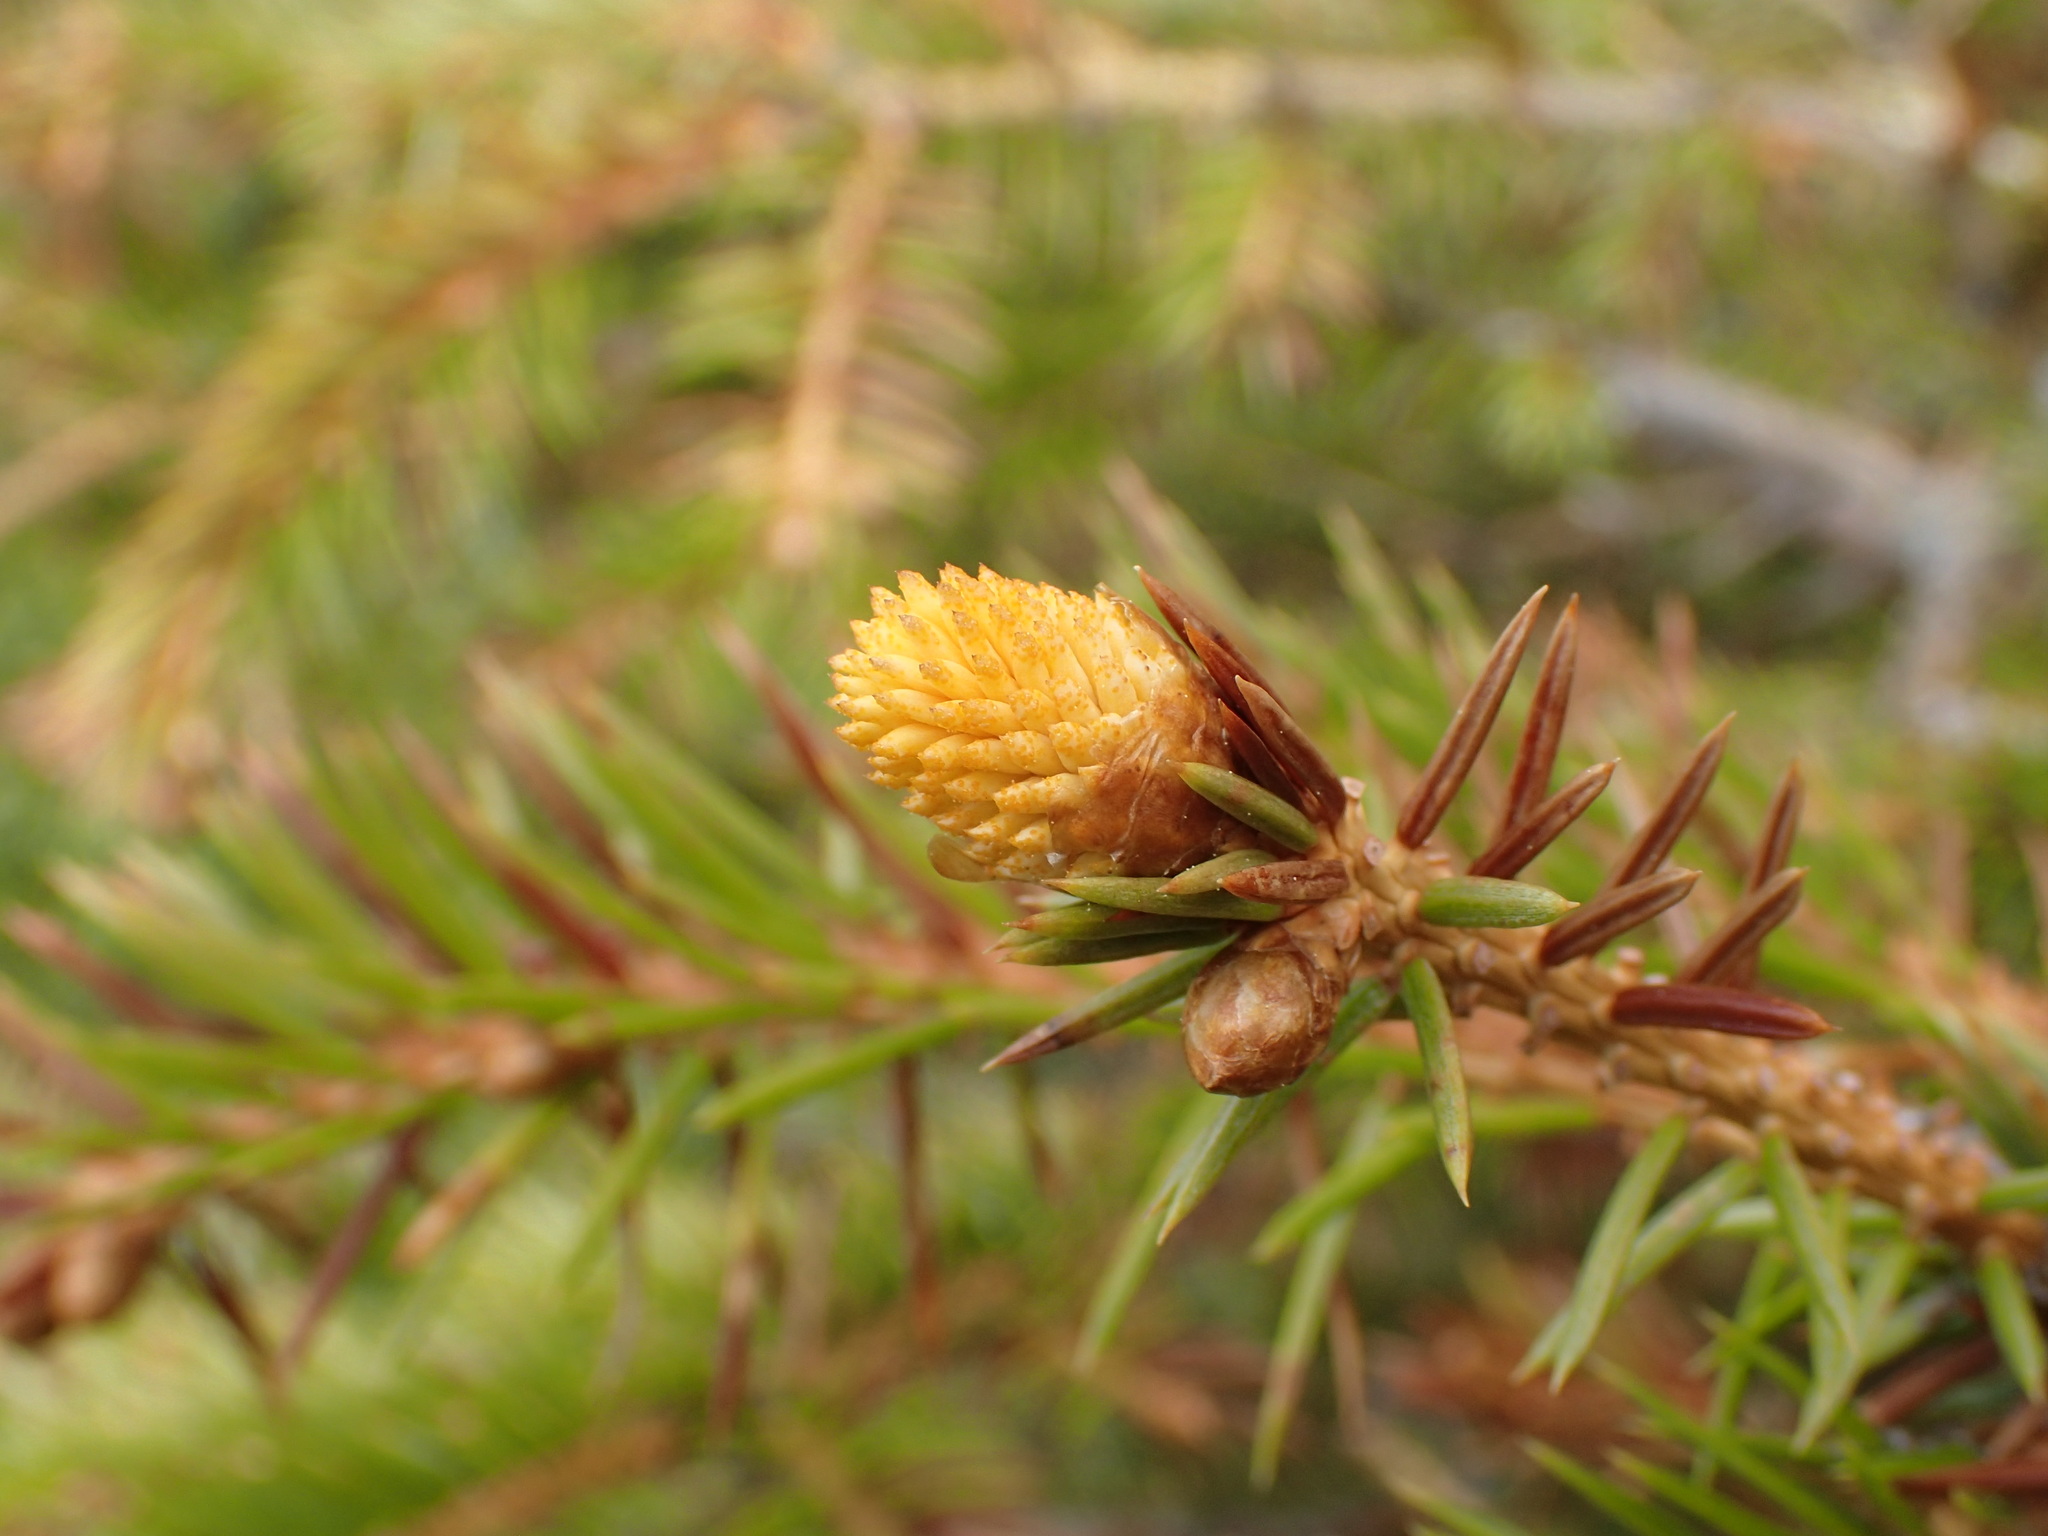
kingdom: Fungi
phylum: Basidiomycota
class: Pucciniomycetes
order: Pucciniales
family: Coleosporiaceae
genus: Chrysomyxa
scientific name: Chrysomyxa woroninii
